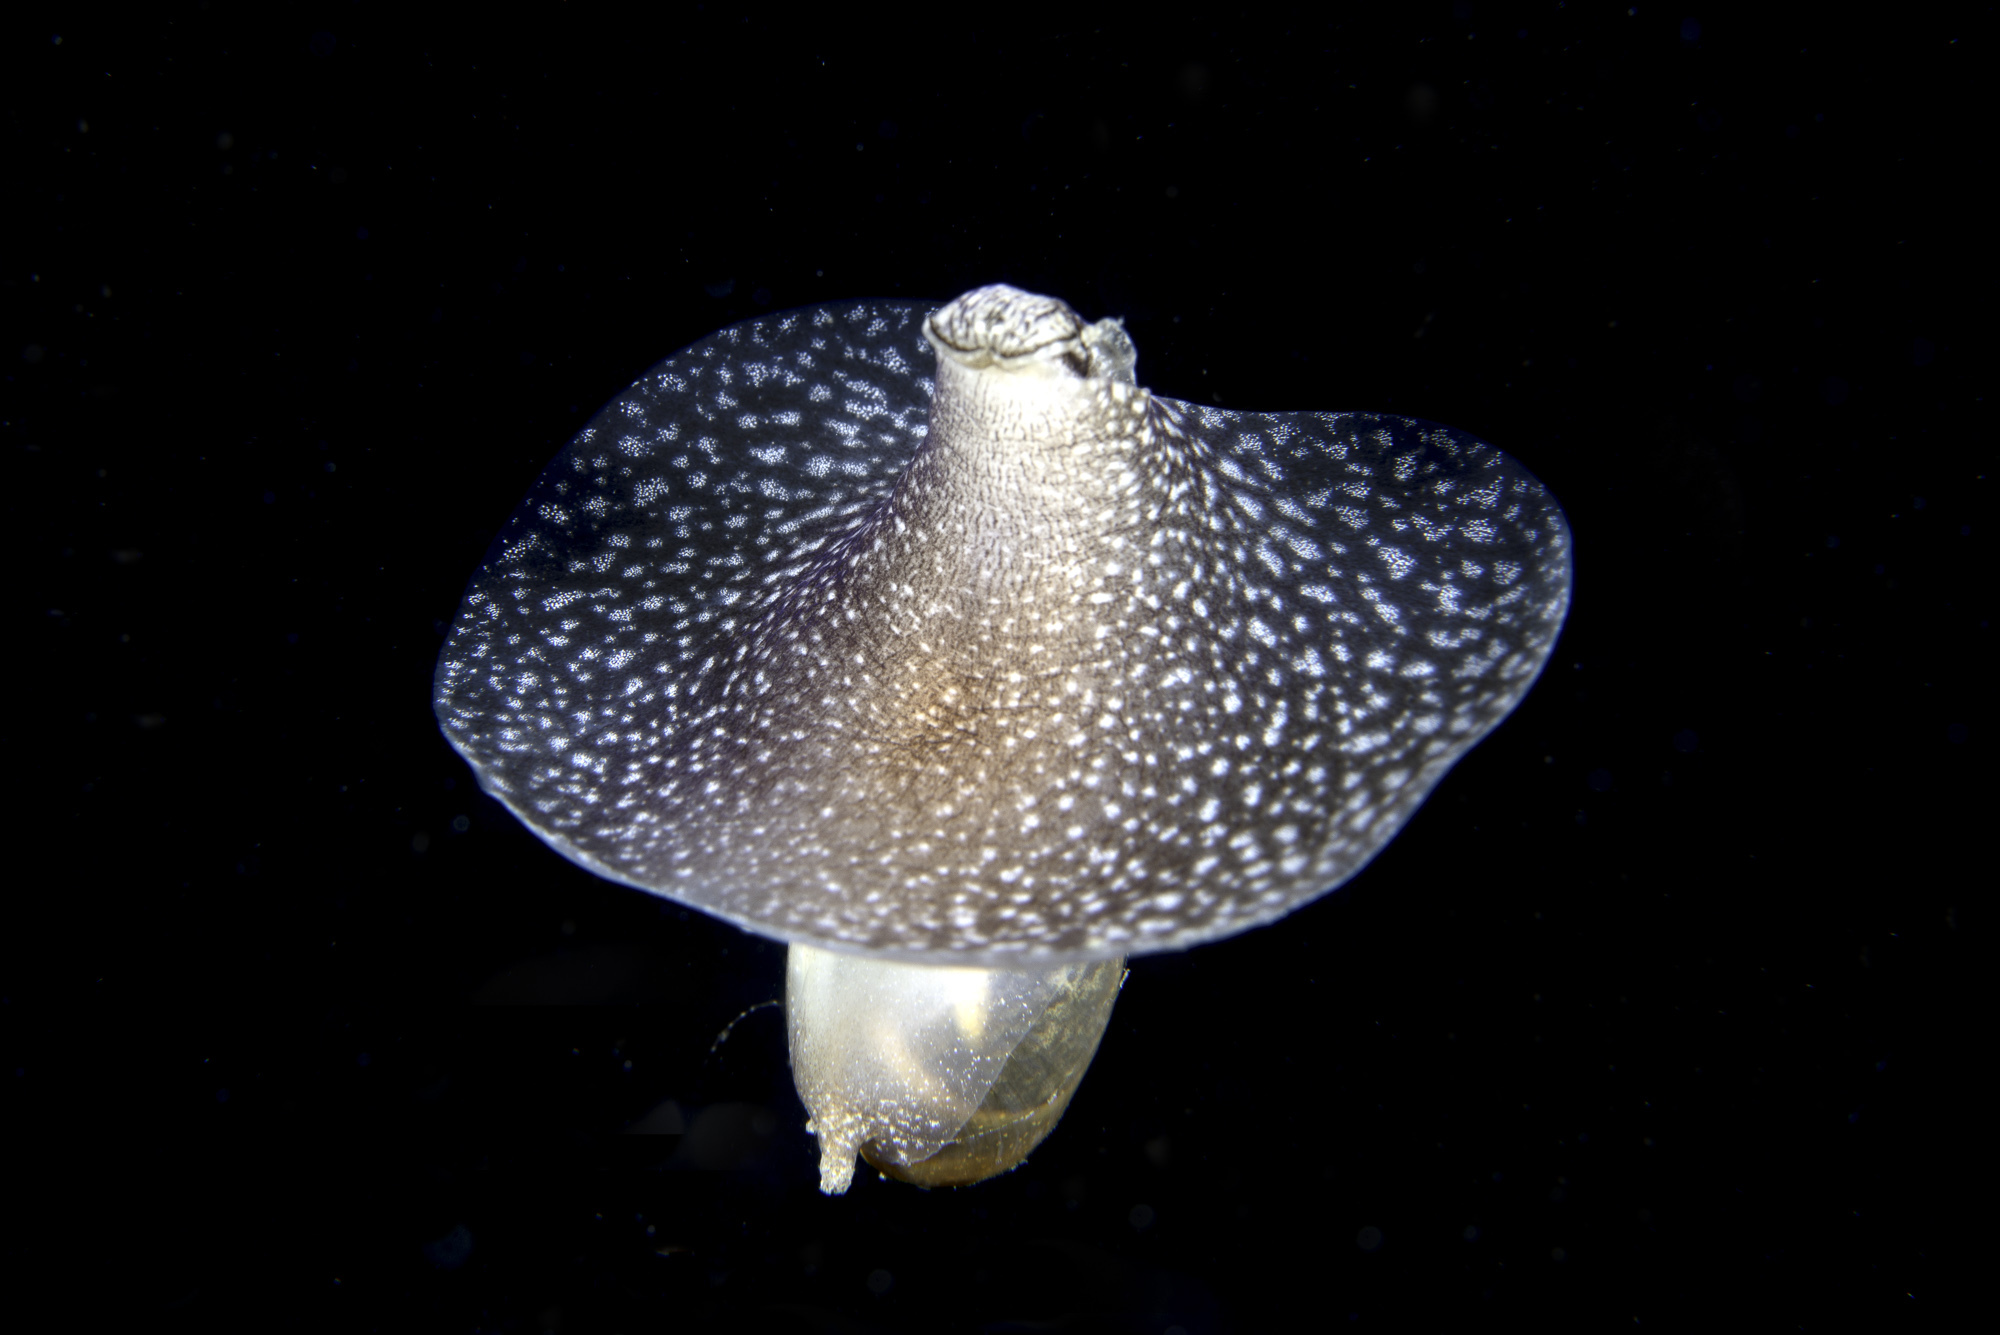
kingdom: Animalia
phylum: Mollusca
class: Gastropoda
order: Aplysiida
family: Akeridae
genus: Akera
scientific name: Akera bullata
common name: Common bubble snail
